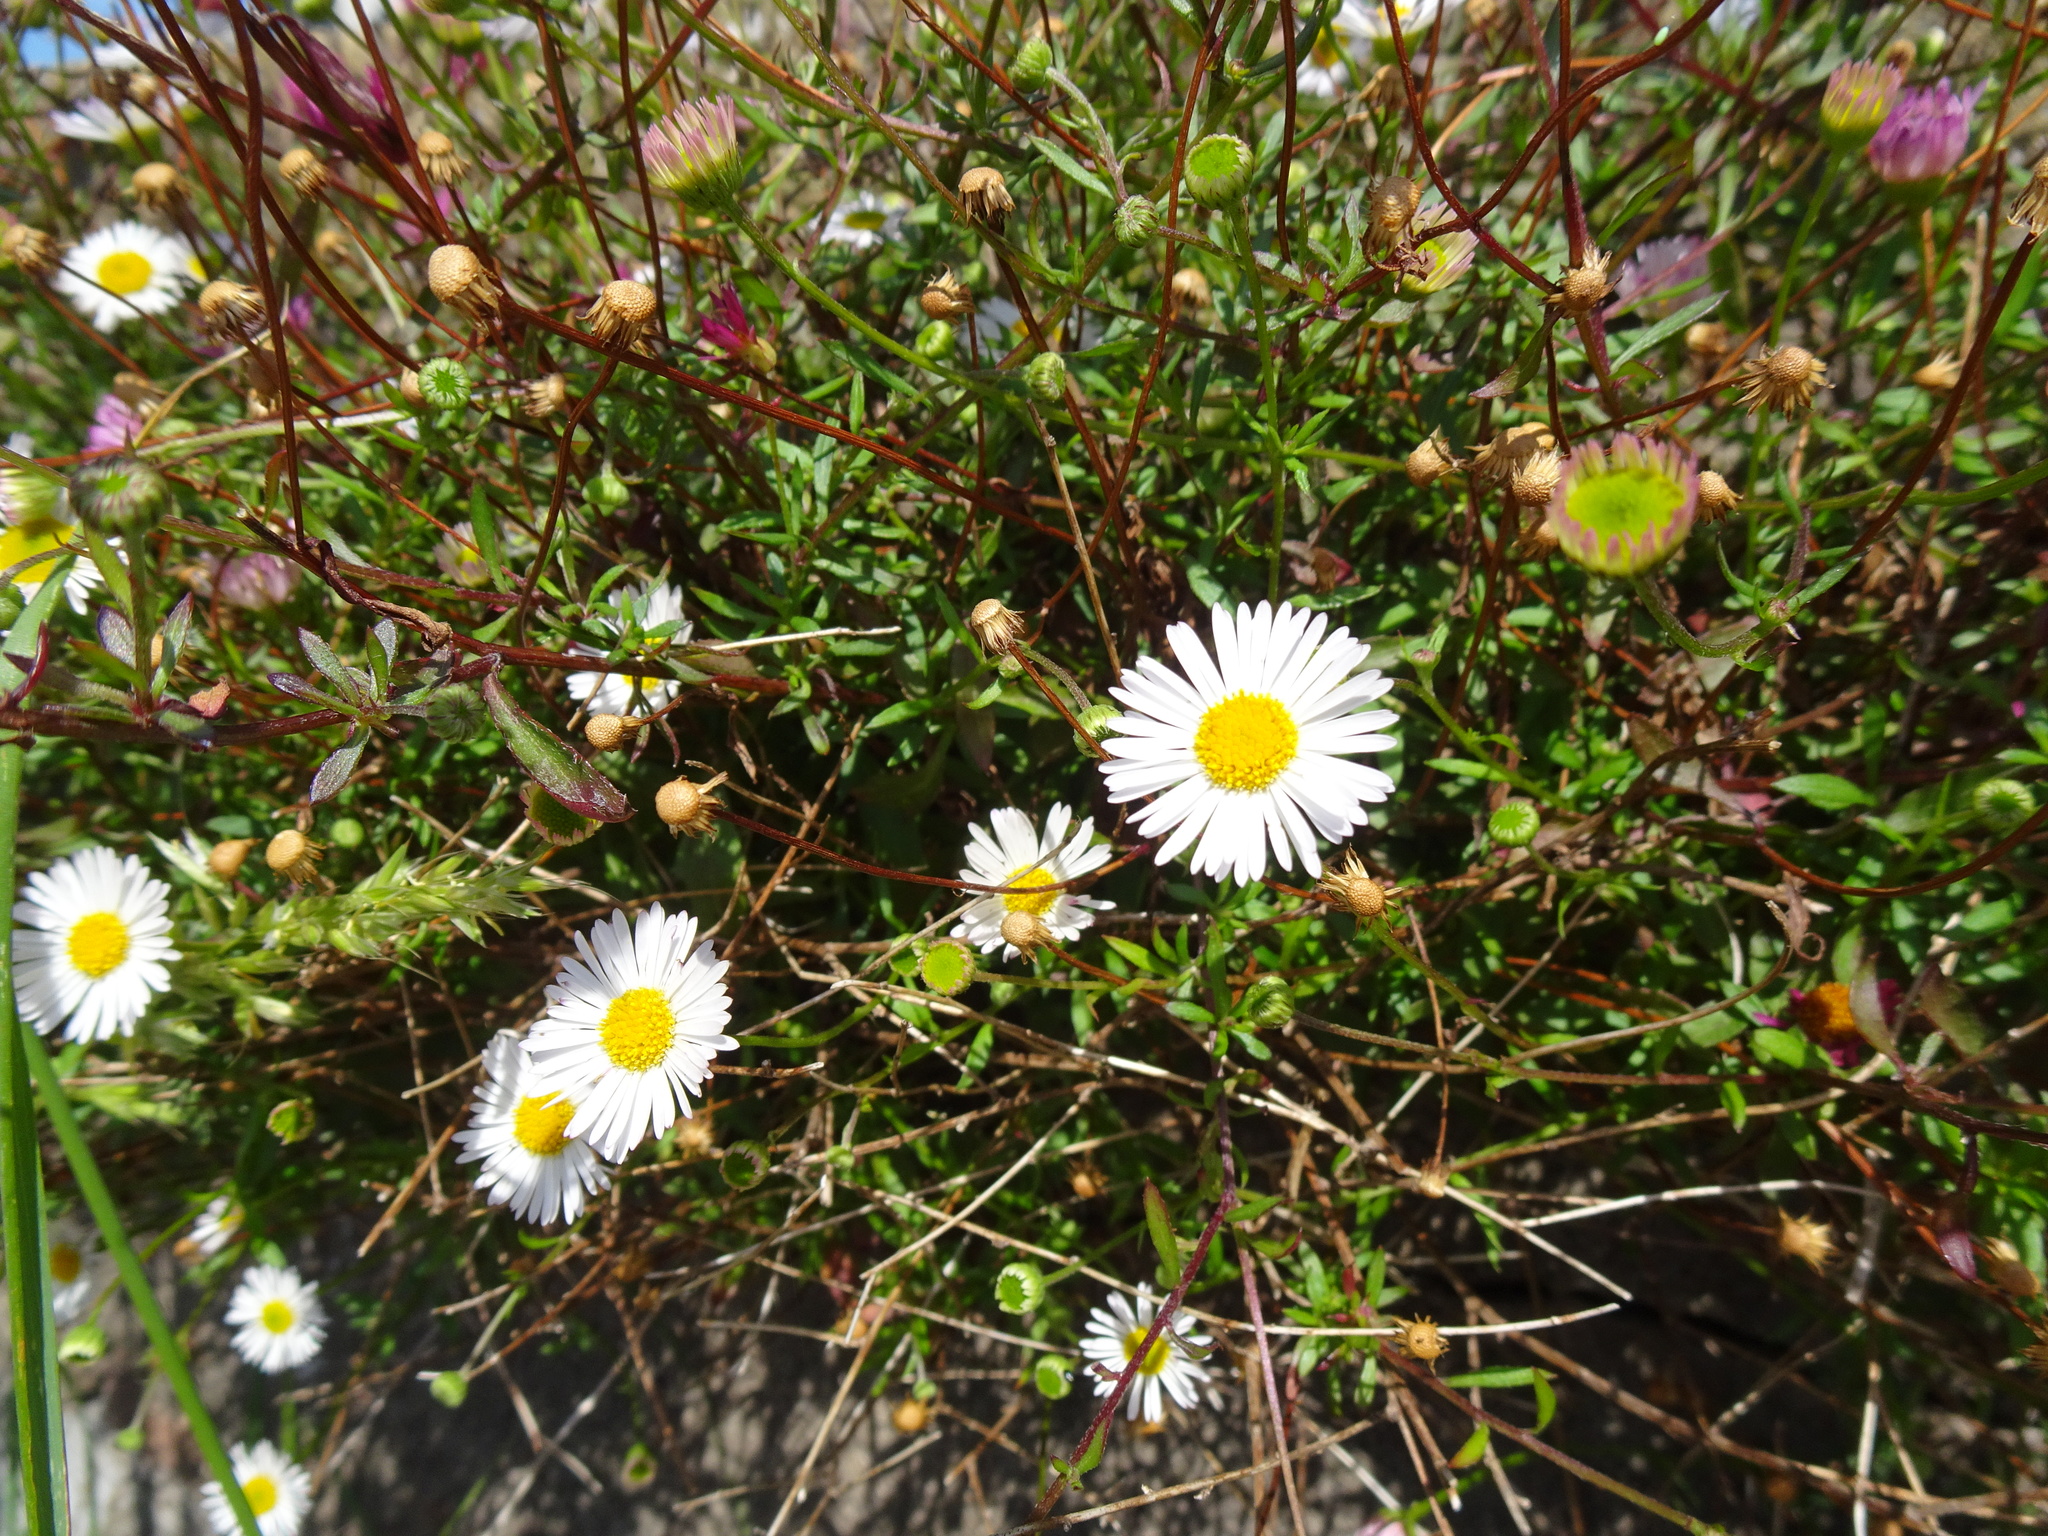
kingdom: Plantae
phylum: Tracheophyta
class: Magnoliopsida
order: Asterales
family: Asteraceae
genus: Erigeron
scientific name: Erigeron karvinskianus
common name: Mexican fleabane
